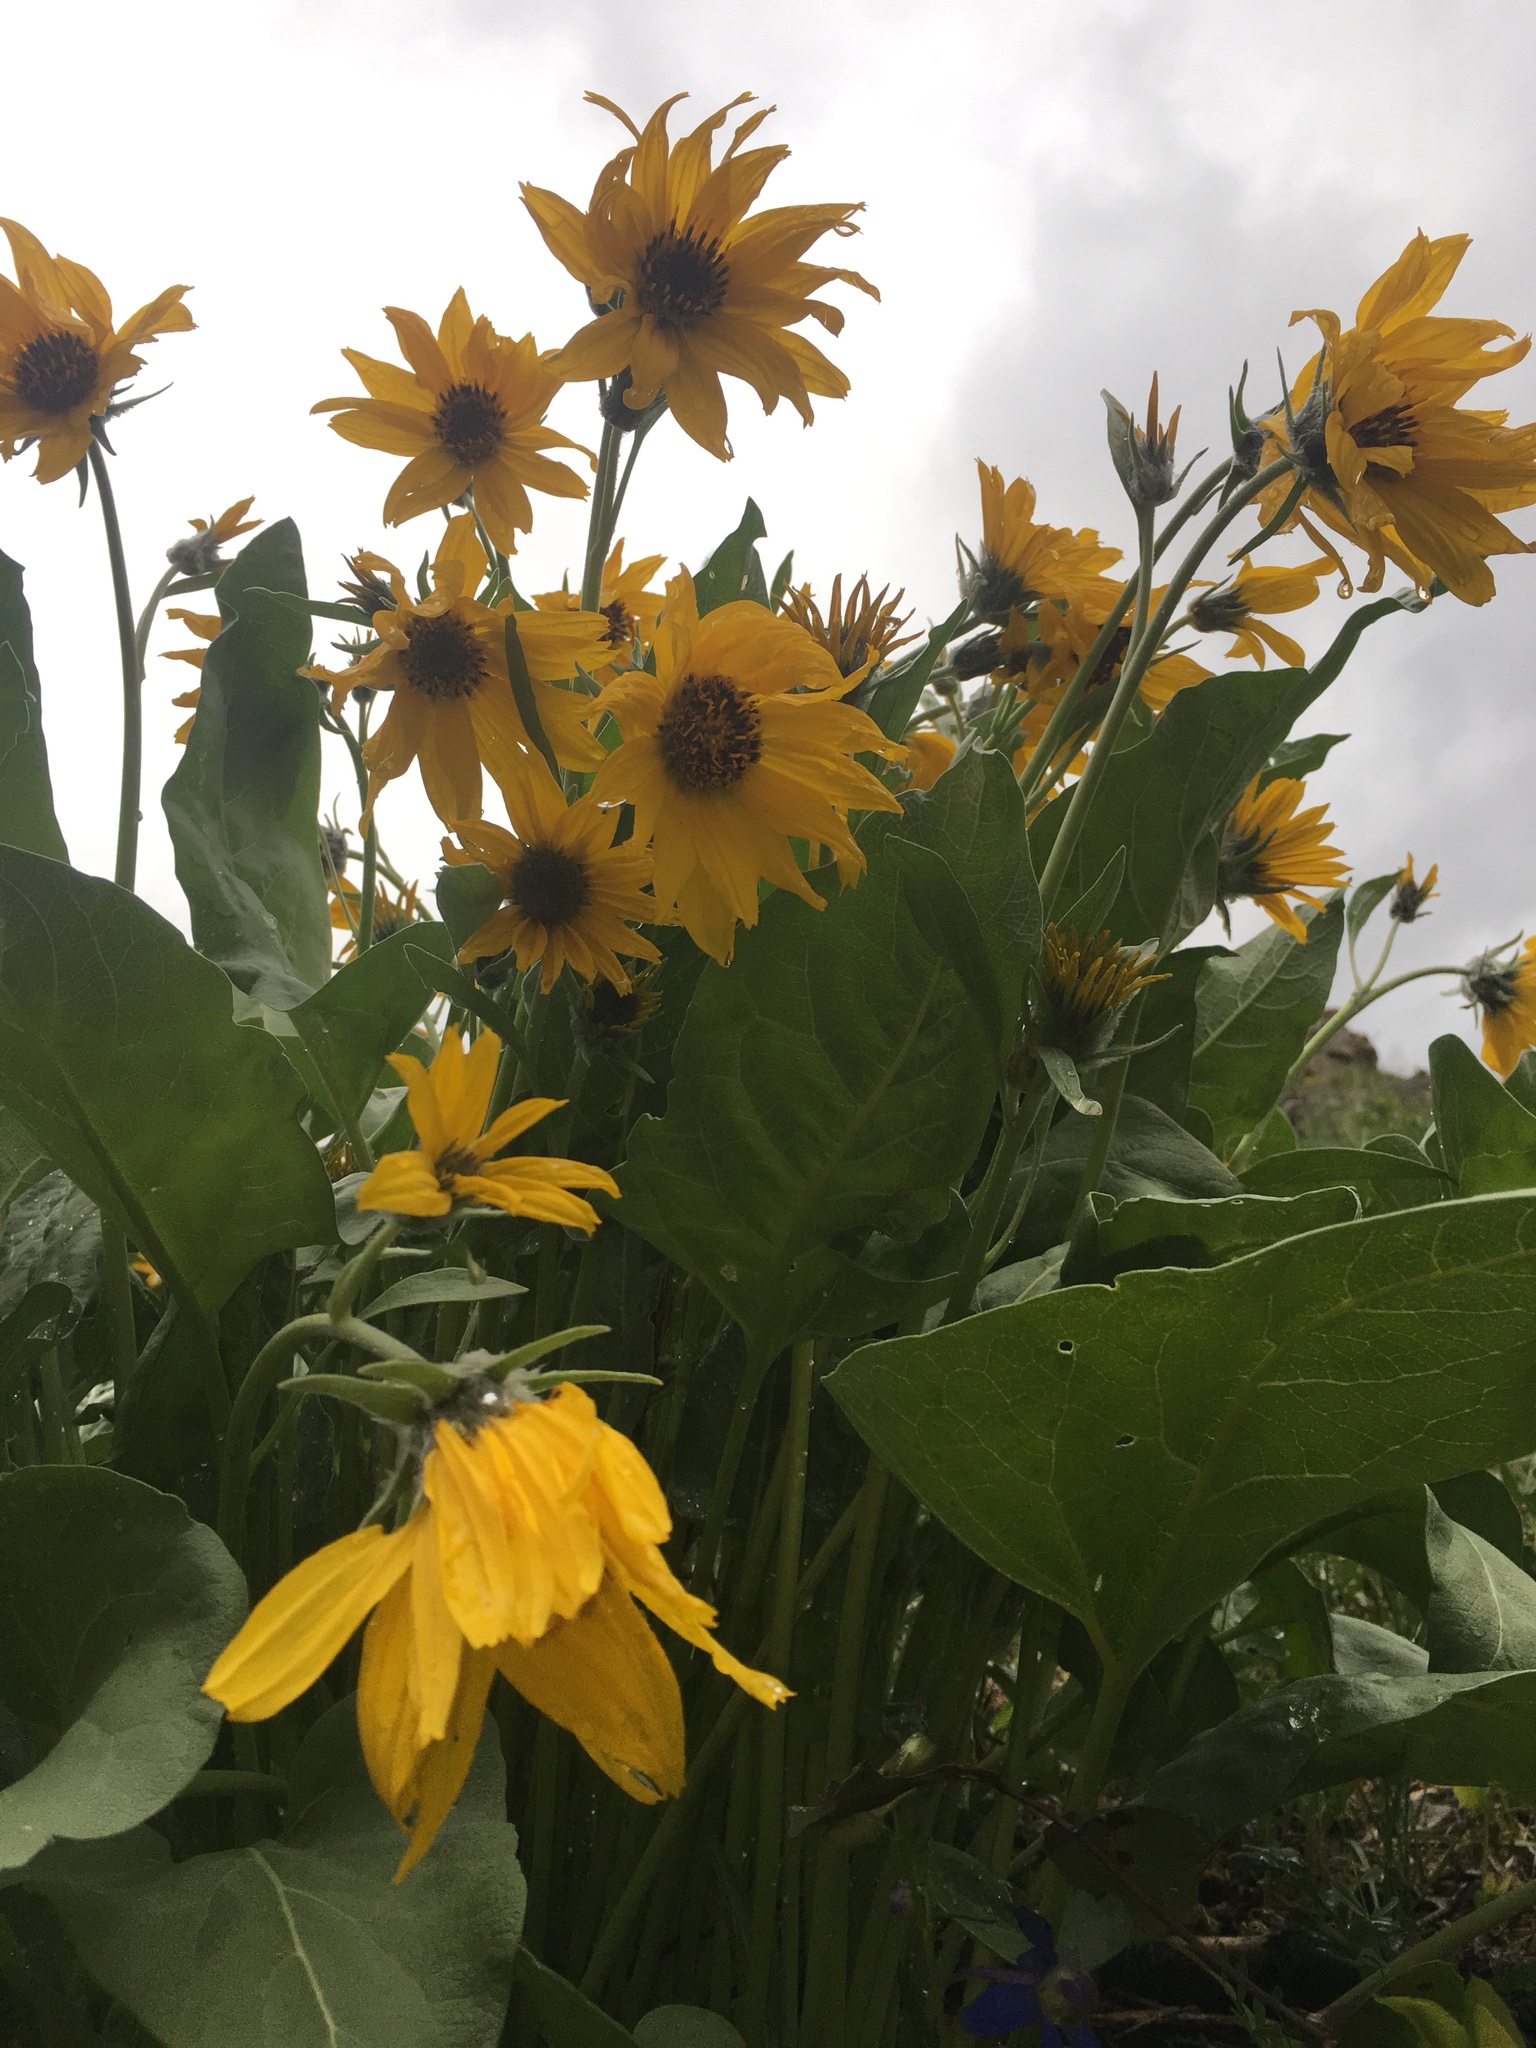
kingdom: Plantae
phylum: Tracheophyta
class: Magnoliopsida
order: Asterales
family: Asteraceae
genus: Wyethia
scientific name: Wyethia sagittata
